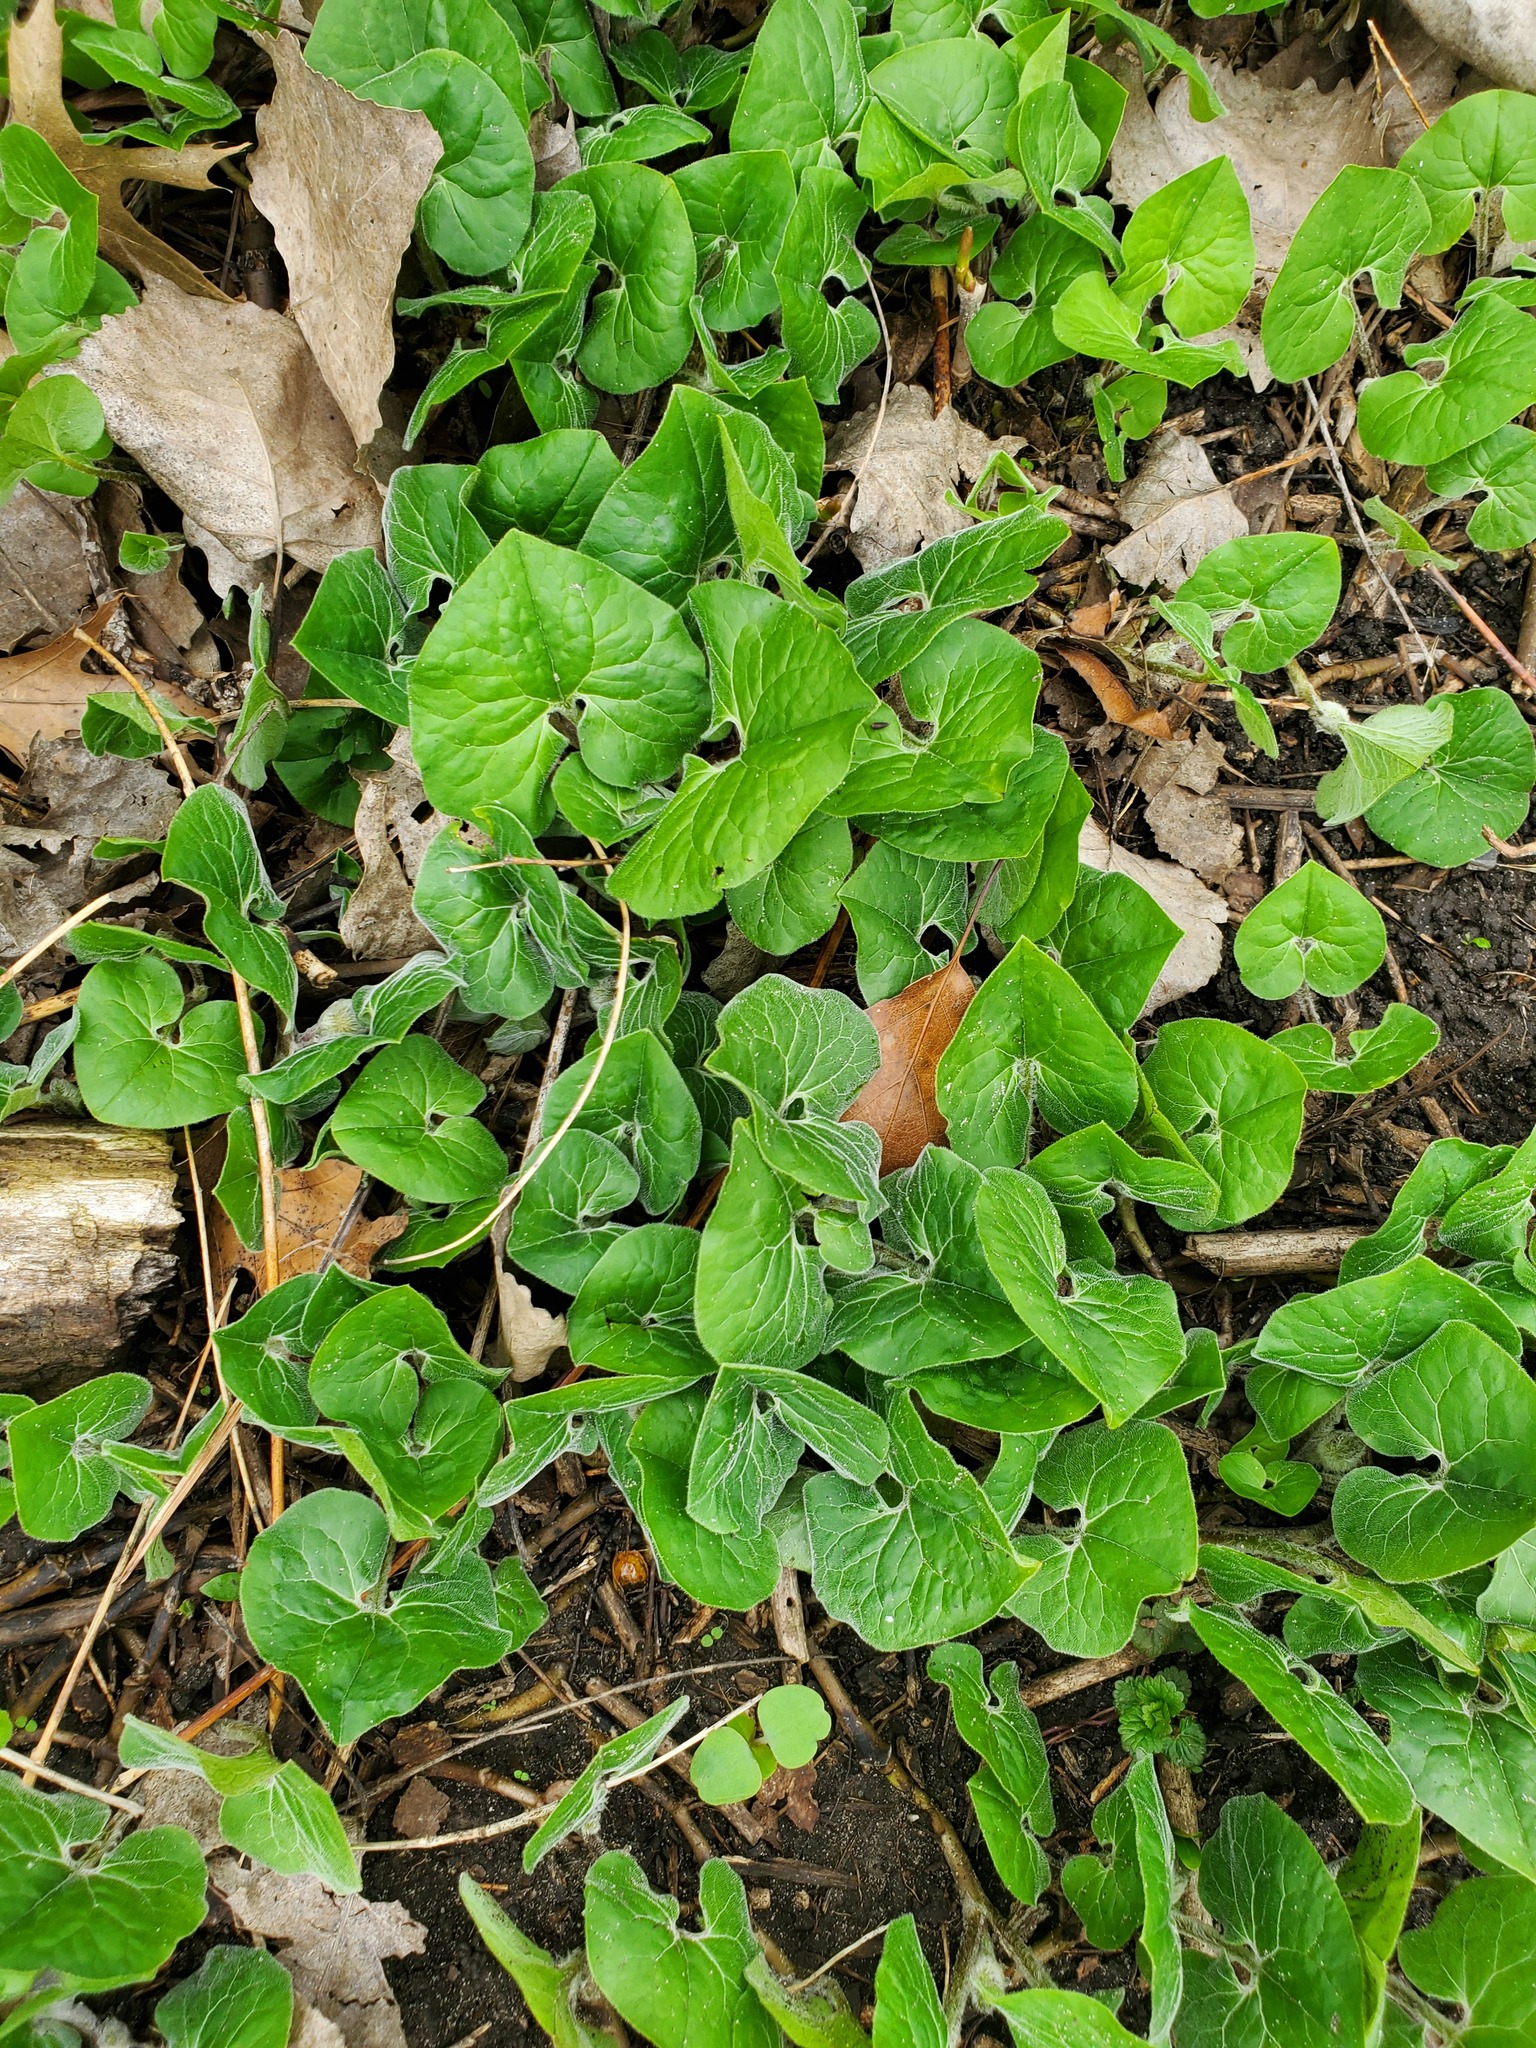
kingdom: Plantae
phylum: Tracheophyta
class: Magnoliopsida
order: Piperales
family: Aristolochiaceae
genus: Asarum
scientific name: Asarum canadense
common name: Wild ginger
